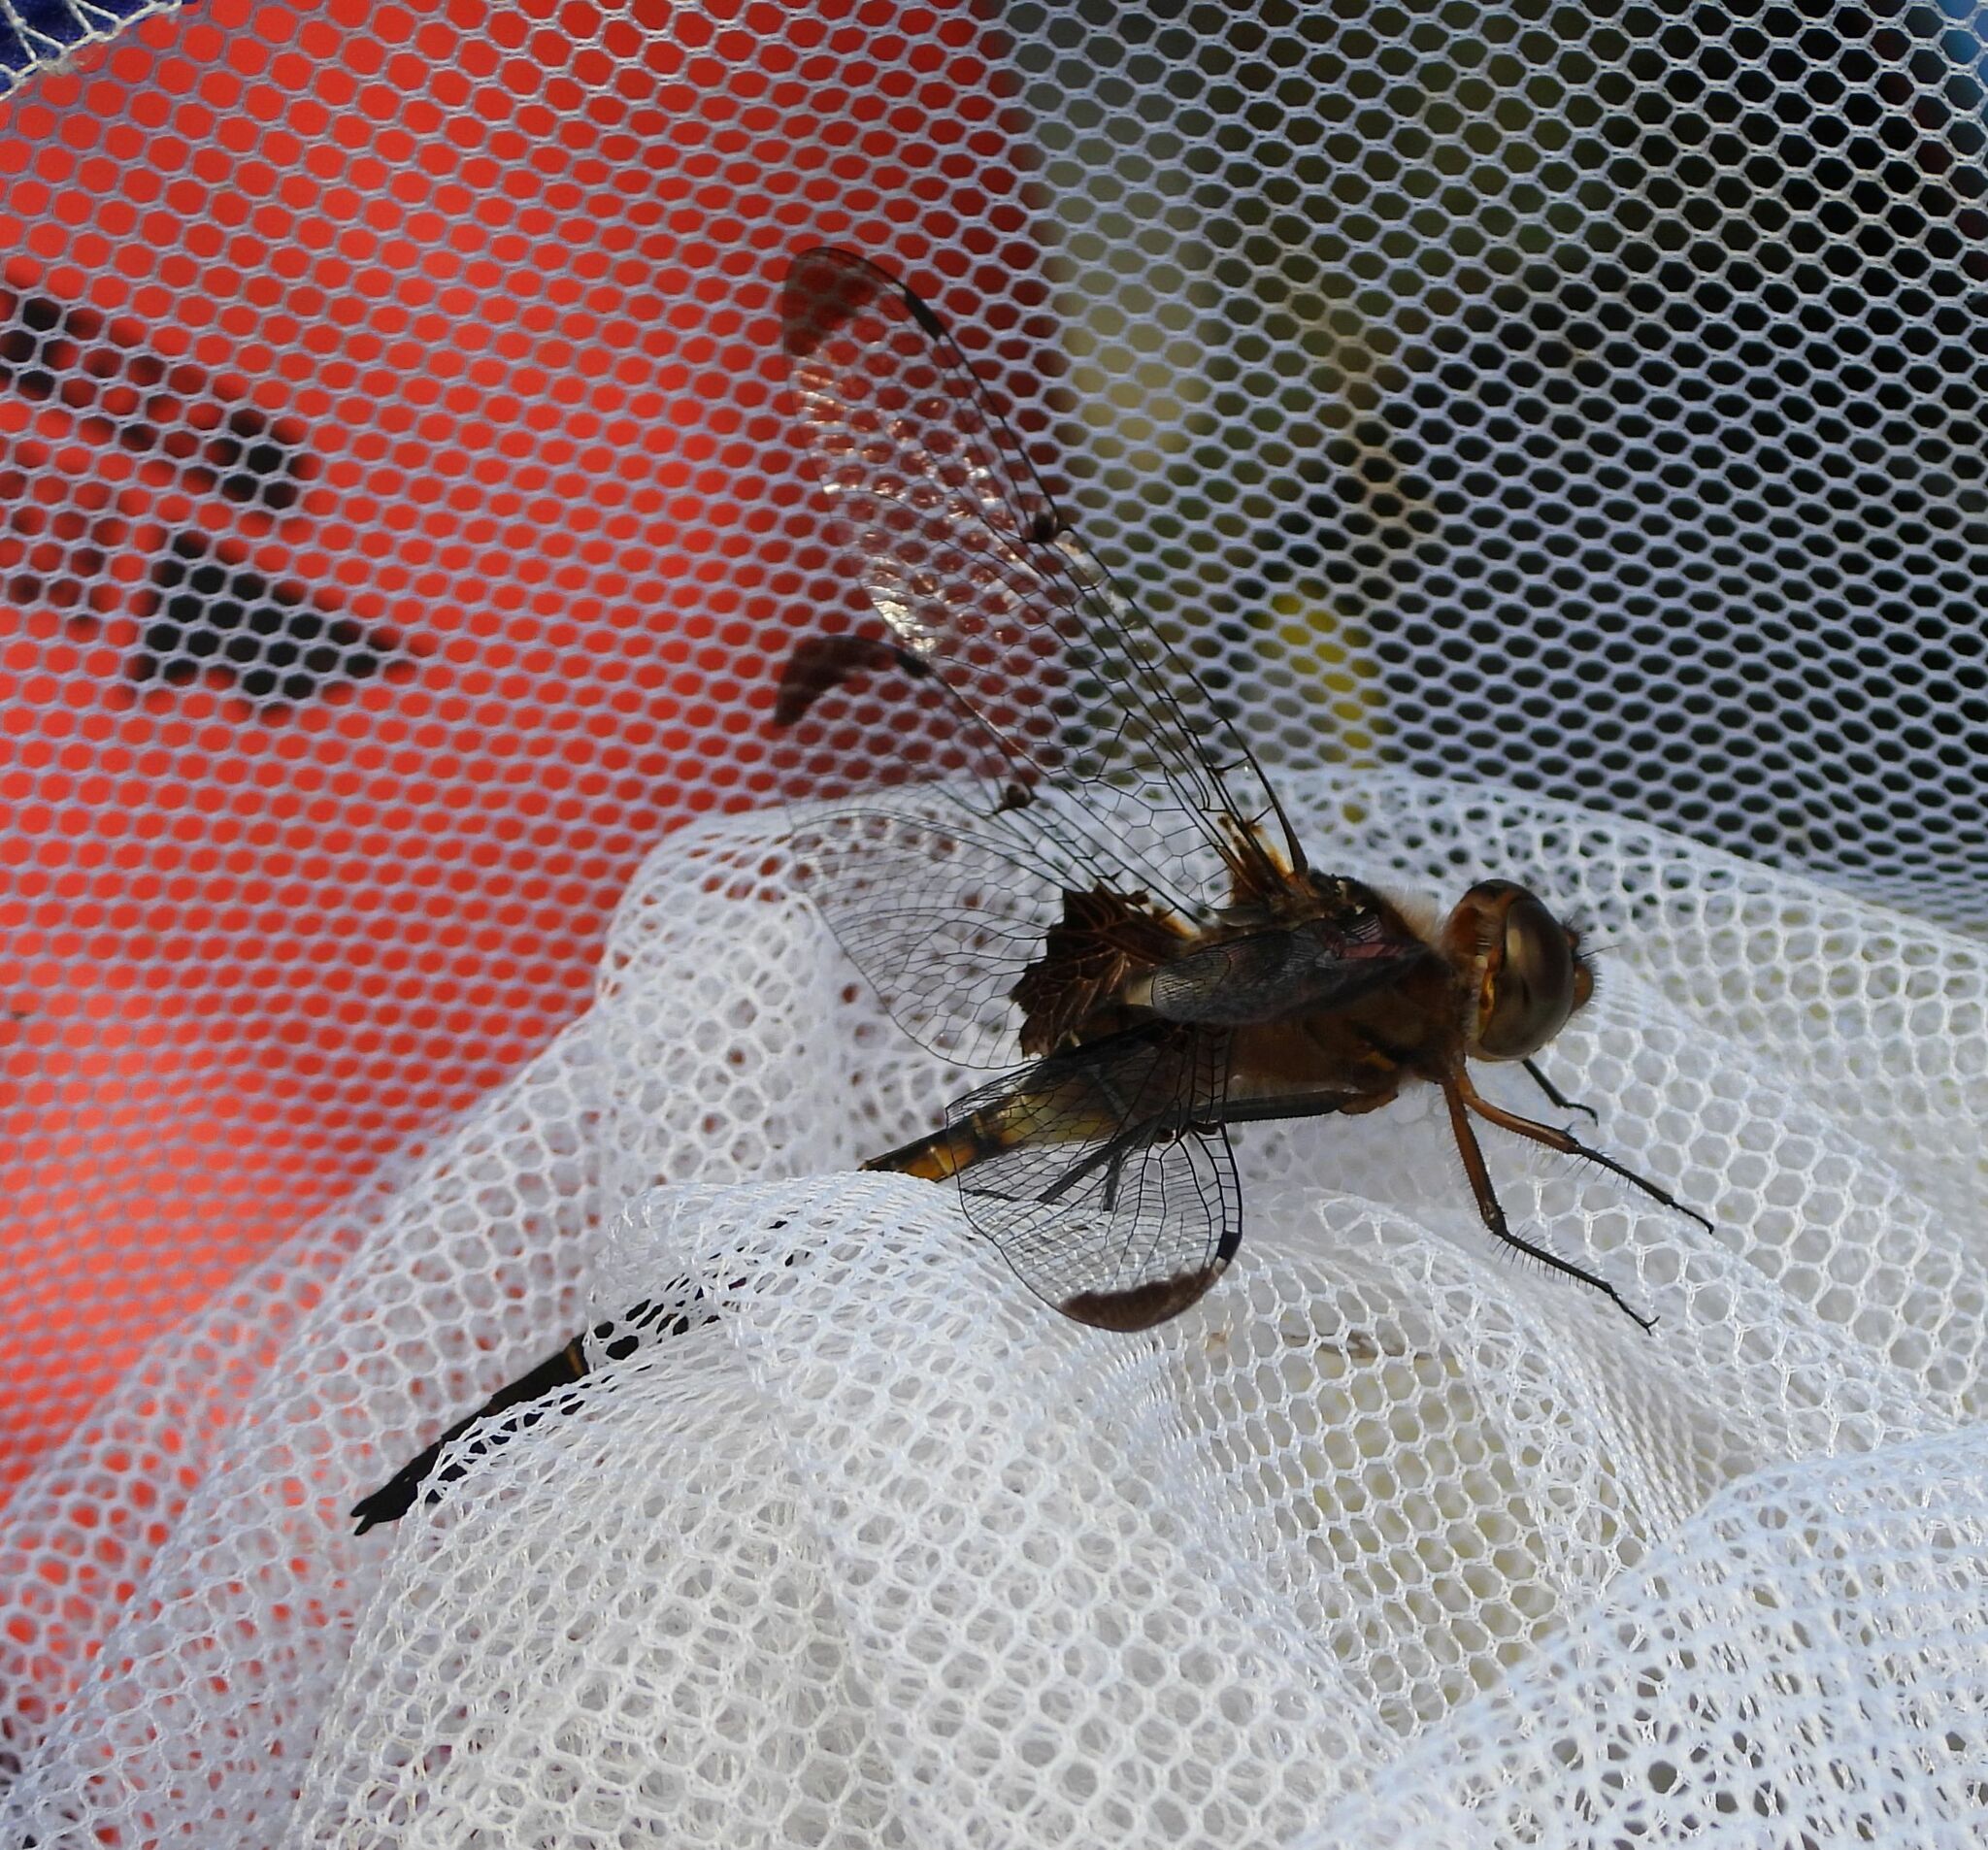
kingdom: Animalia
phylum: Arthropoda
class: Insecta
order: Odonata
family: Corduliidae
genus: Epitheca
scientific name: Epitheca princeps
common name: Prince baskettail
